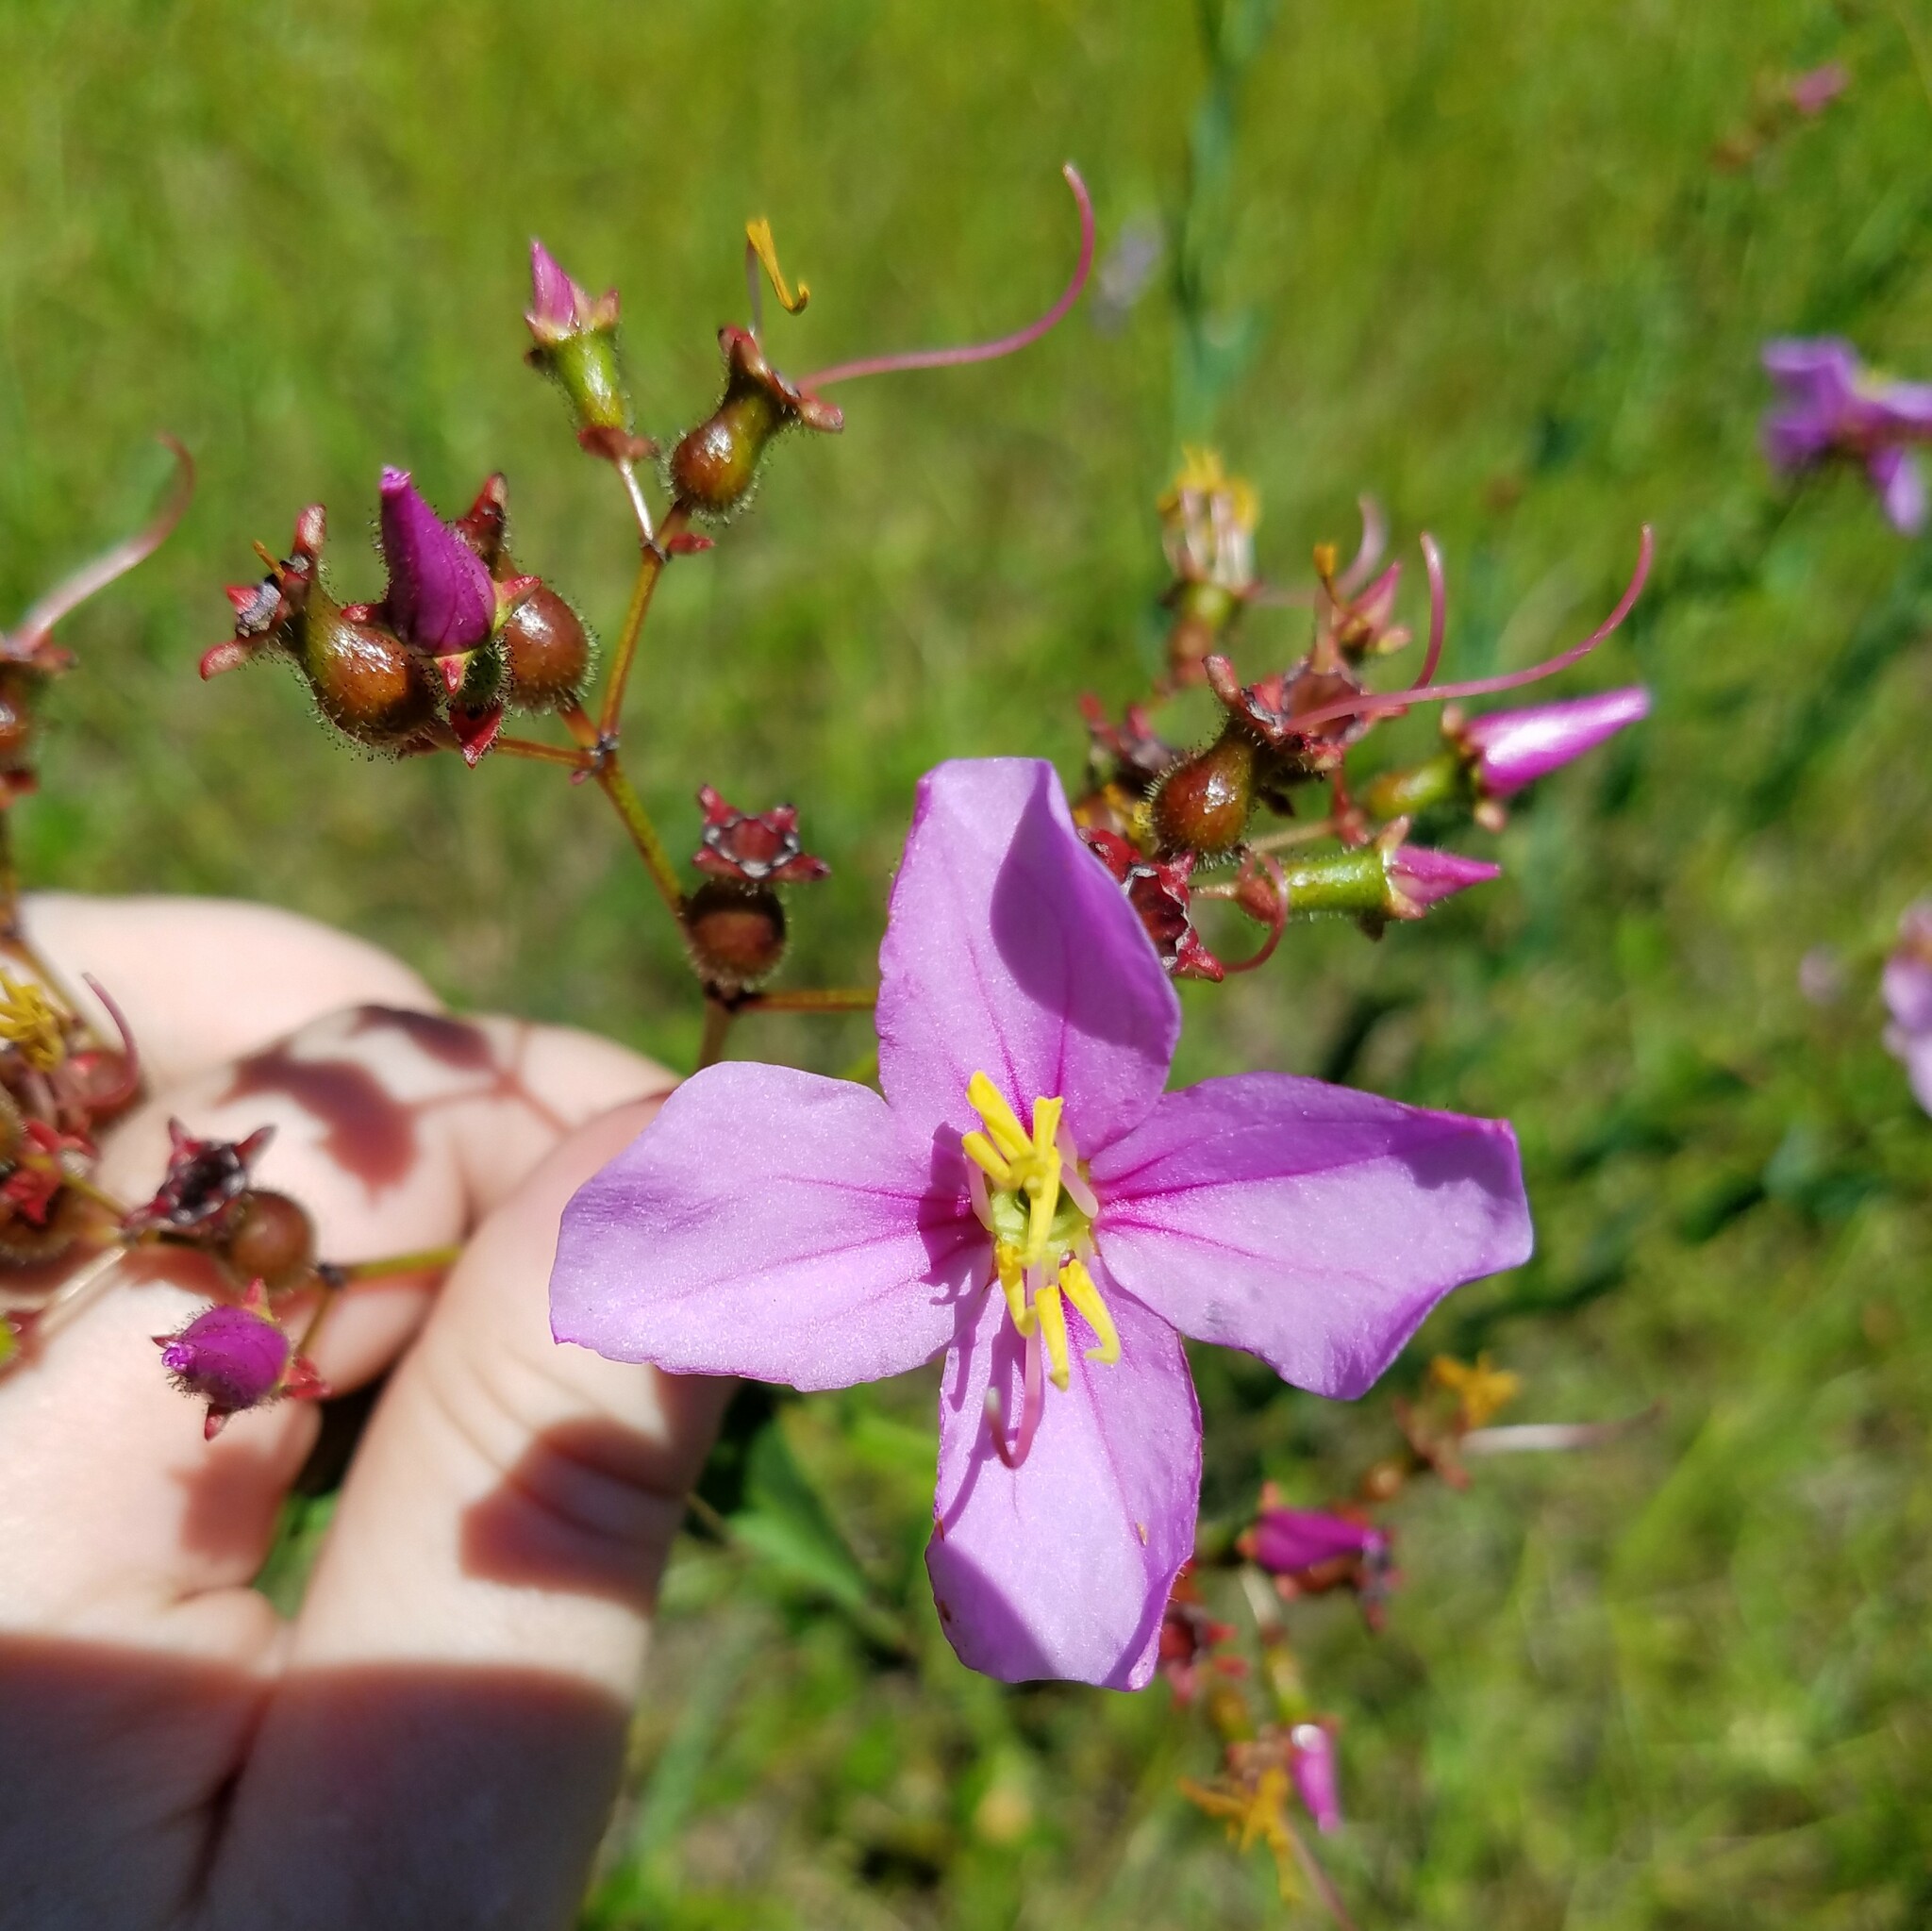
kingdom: Plantae
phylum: Tracheophyta
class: Magnoliopsida
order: Myrtales
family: Melastomataceae
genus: Rhexia
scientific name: Rhexia alifanus
